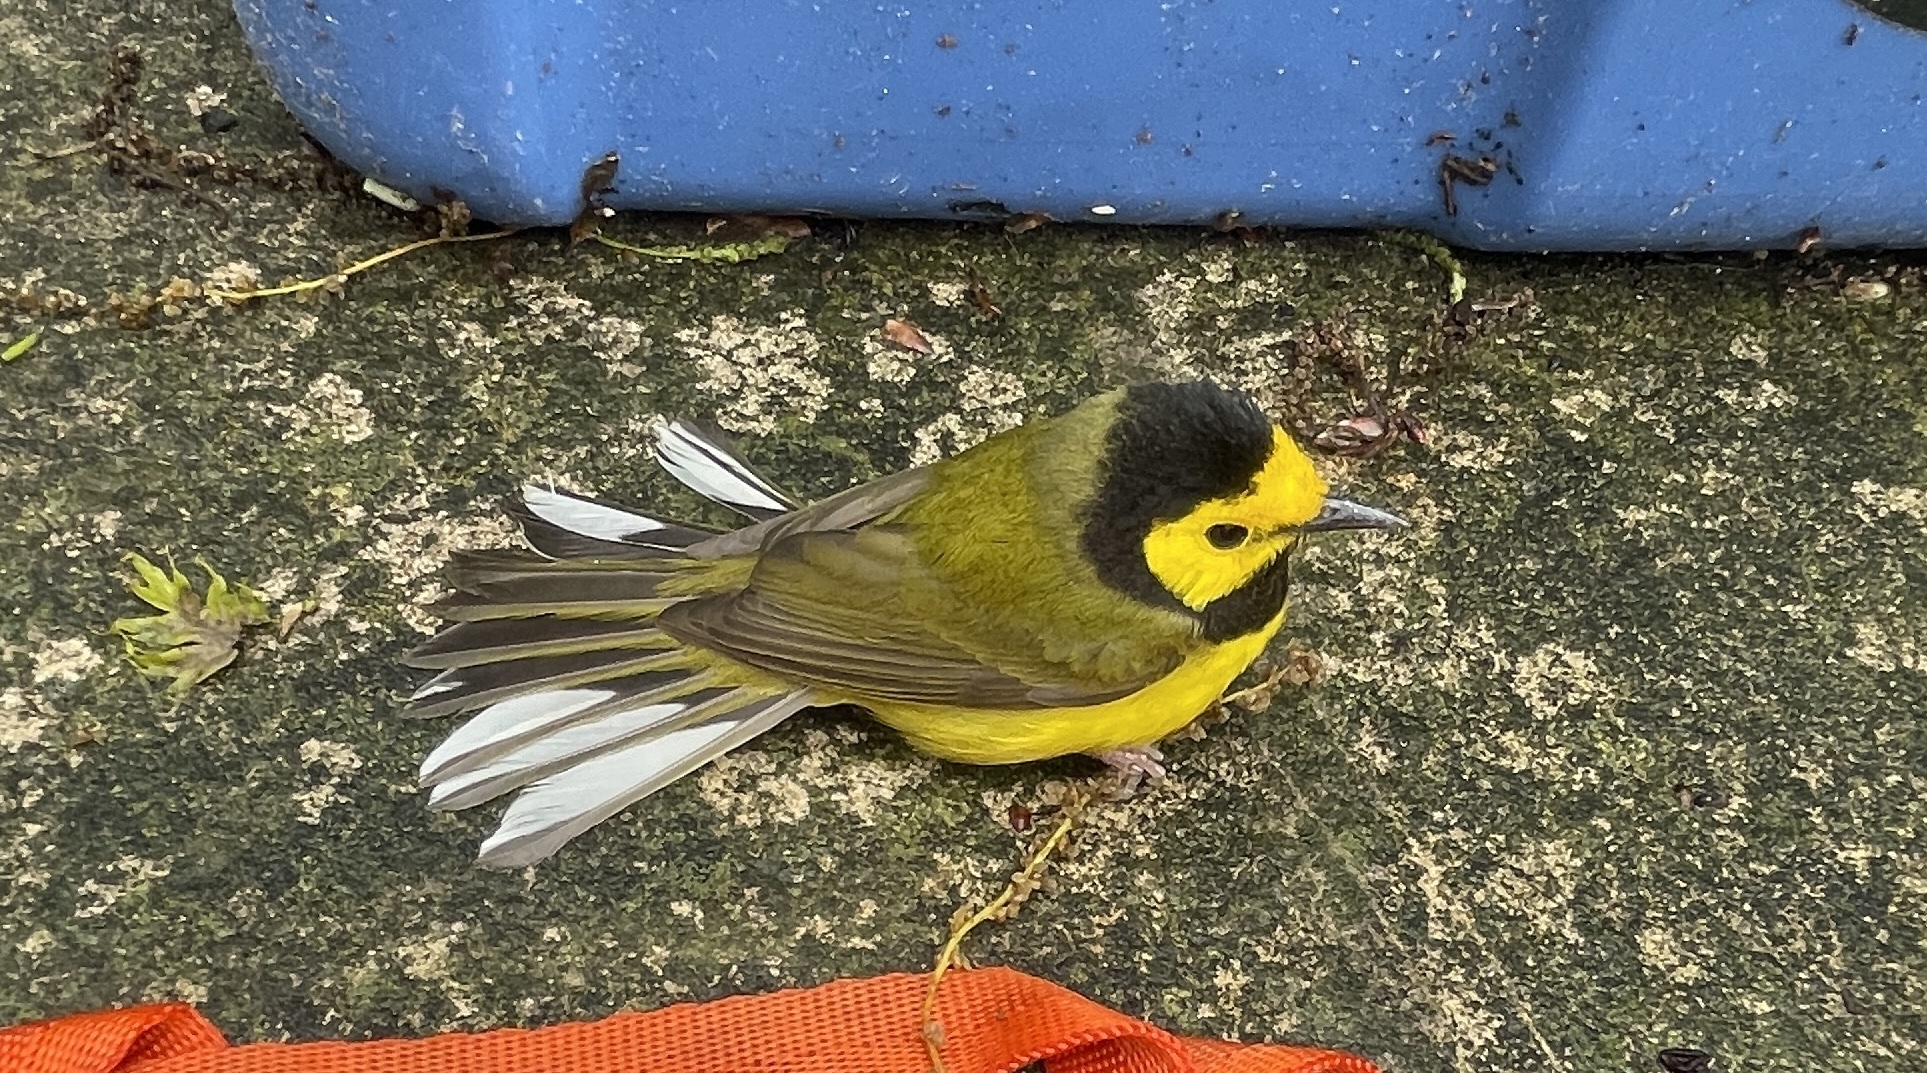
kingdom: Animalia
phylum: Chordata
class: Aves
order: Passeriformes
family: Parulidae
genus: Setophaga
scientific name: Setophaga citrina
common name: Hooded warbler
